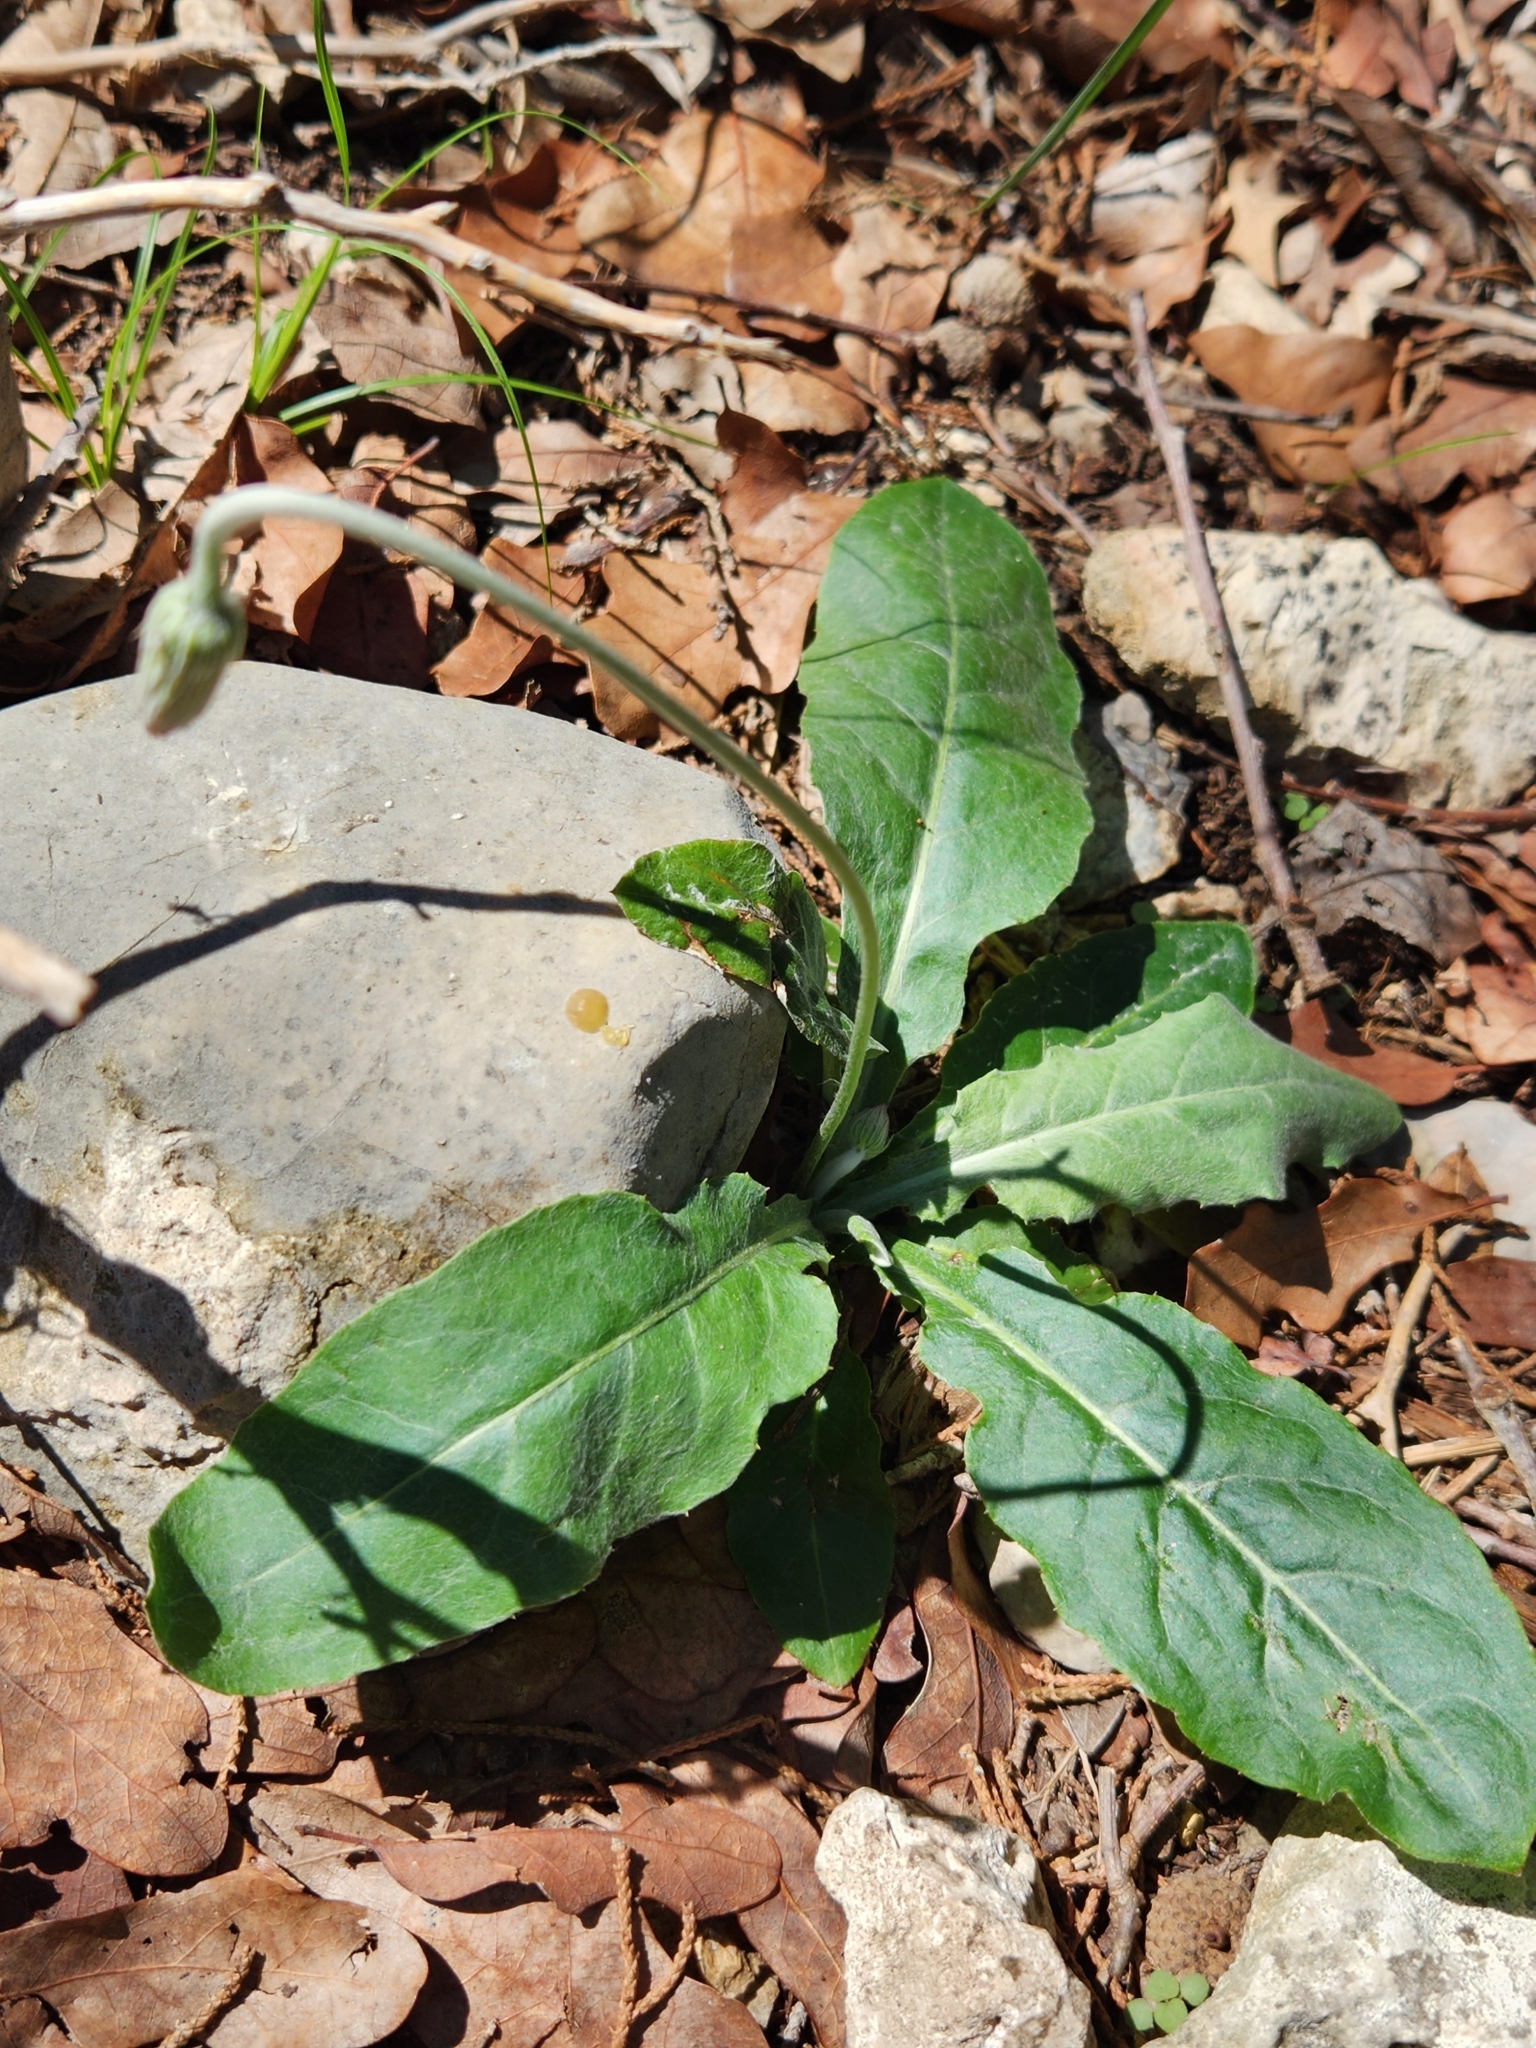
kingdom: Plantae
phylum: Tracheophyta
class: Magnoliopsida
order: Asterales
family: Asteraceae
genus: Chaptalia
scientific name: Chaptalia texana
